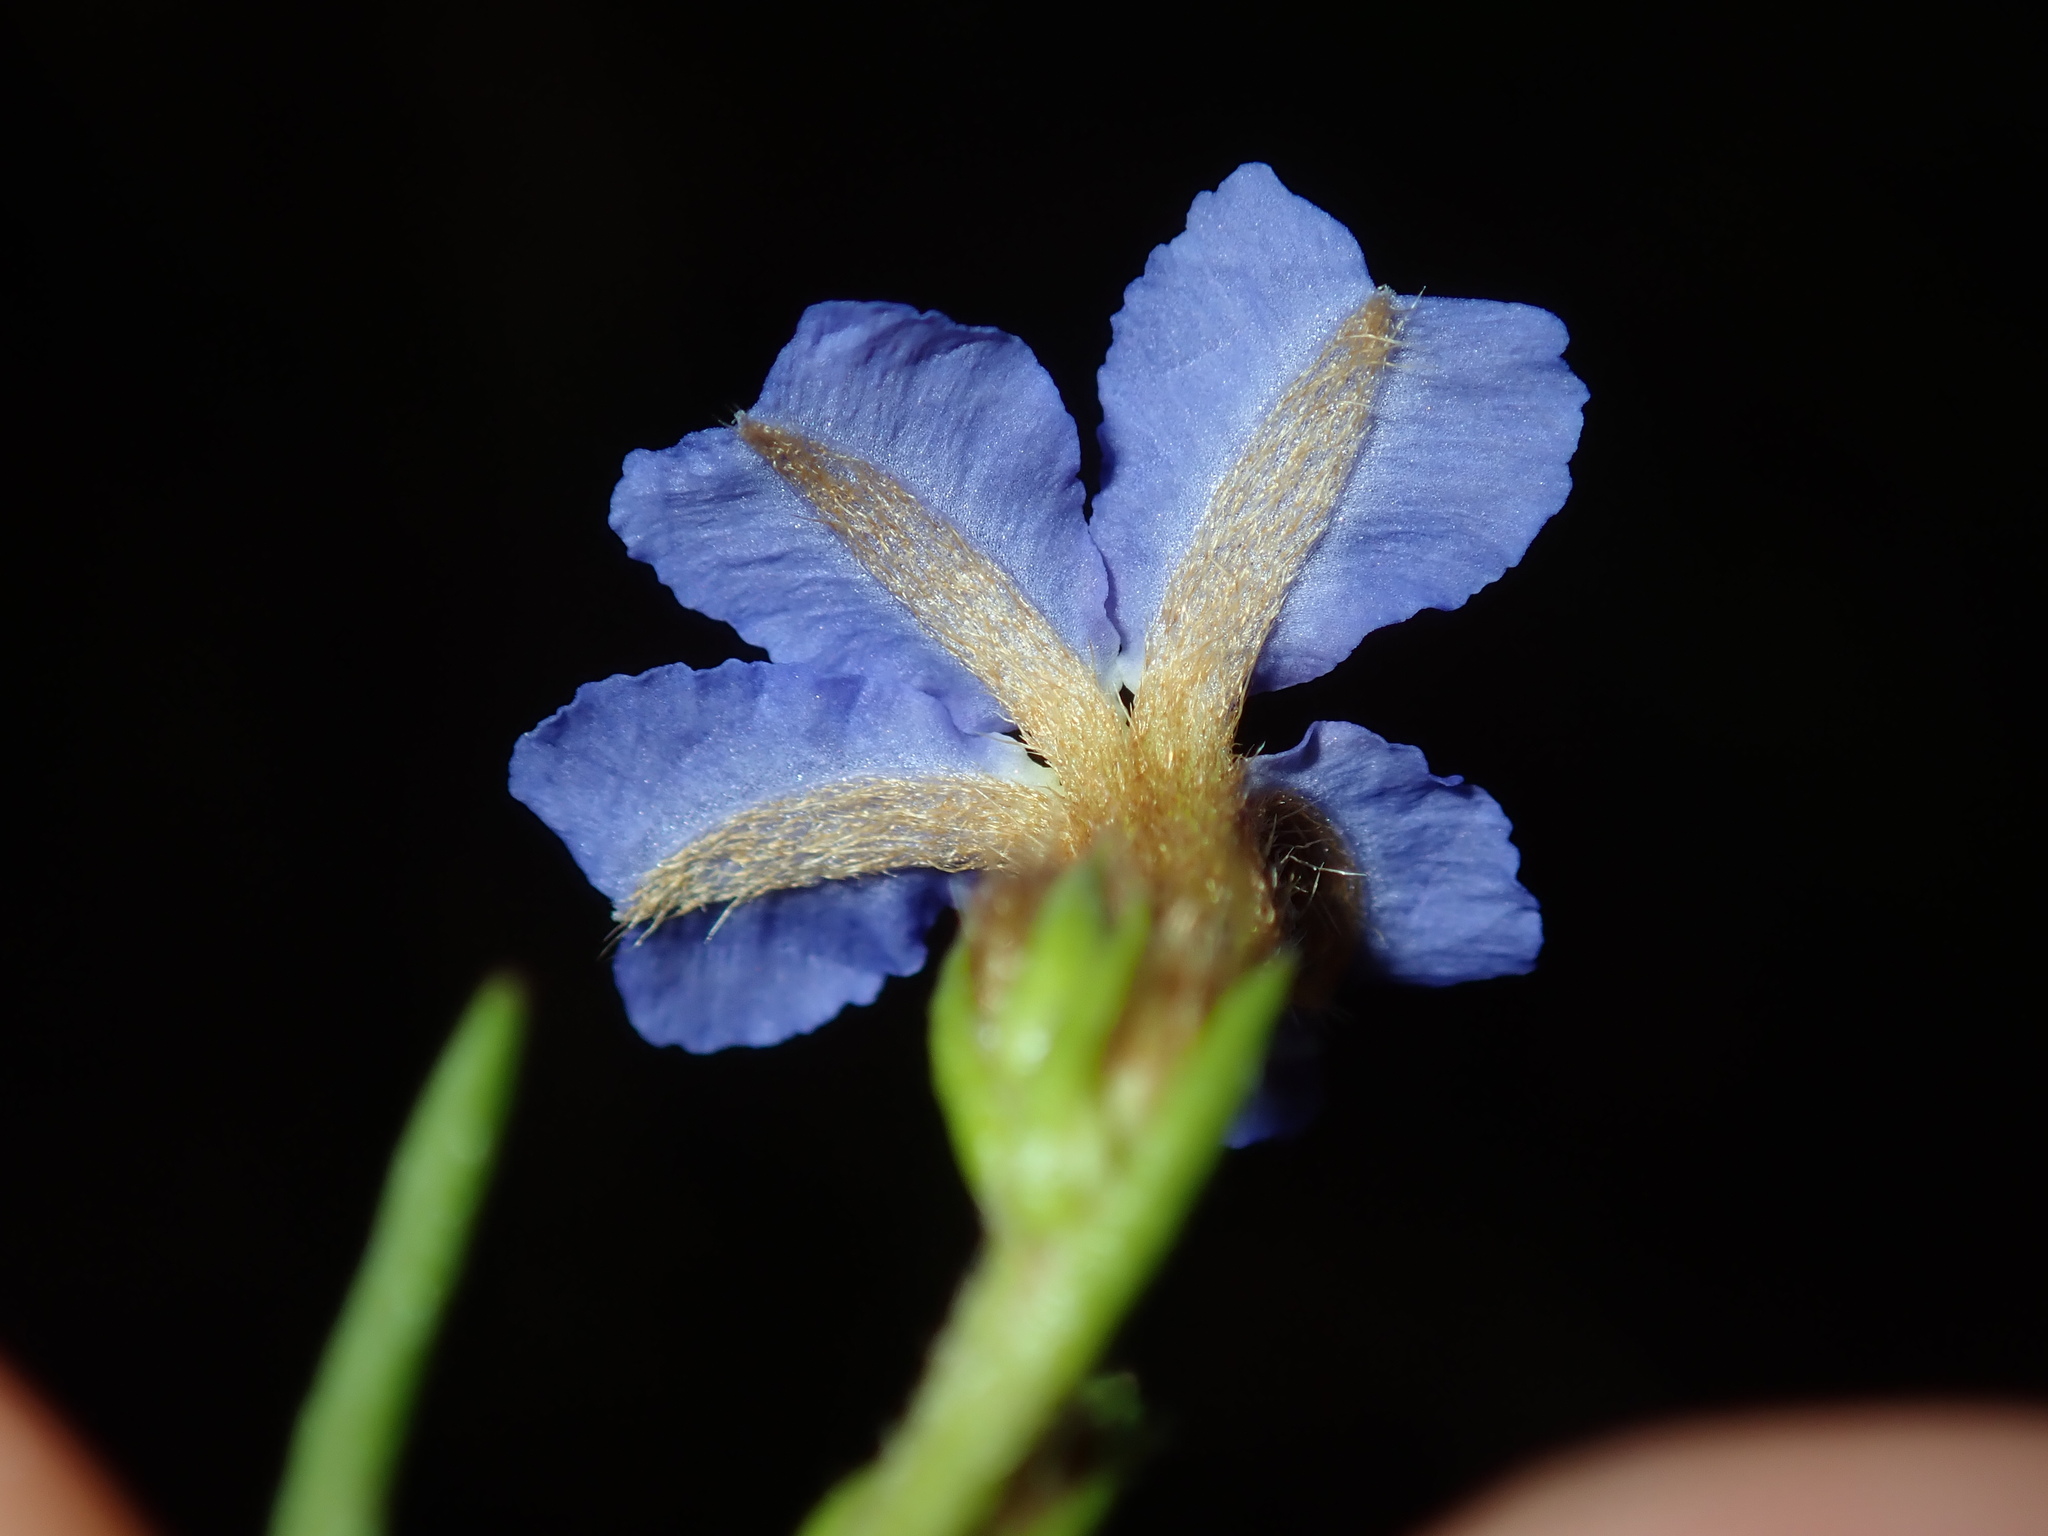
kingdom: Plantae
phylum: Tracheophyta
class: Magnoliopsida
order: Asterales
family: Goodeniaceae
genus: Dampiera
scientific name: Dampiera stricta
